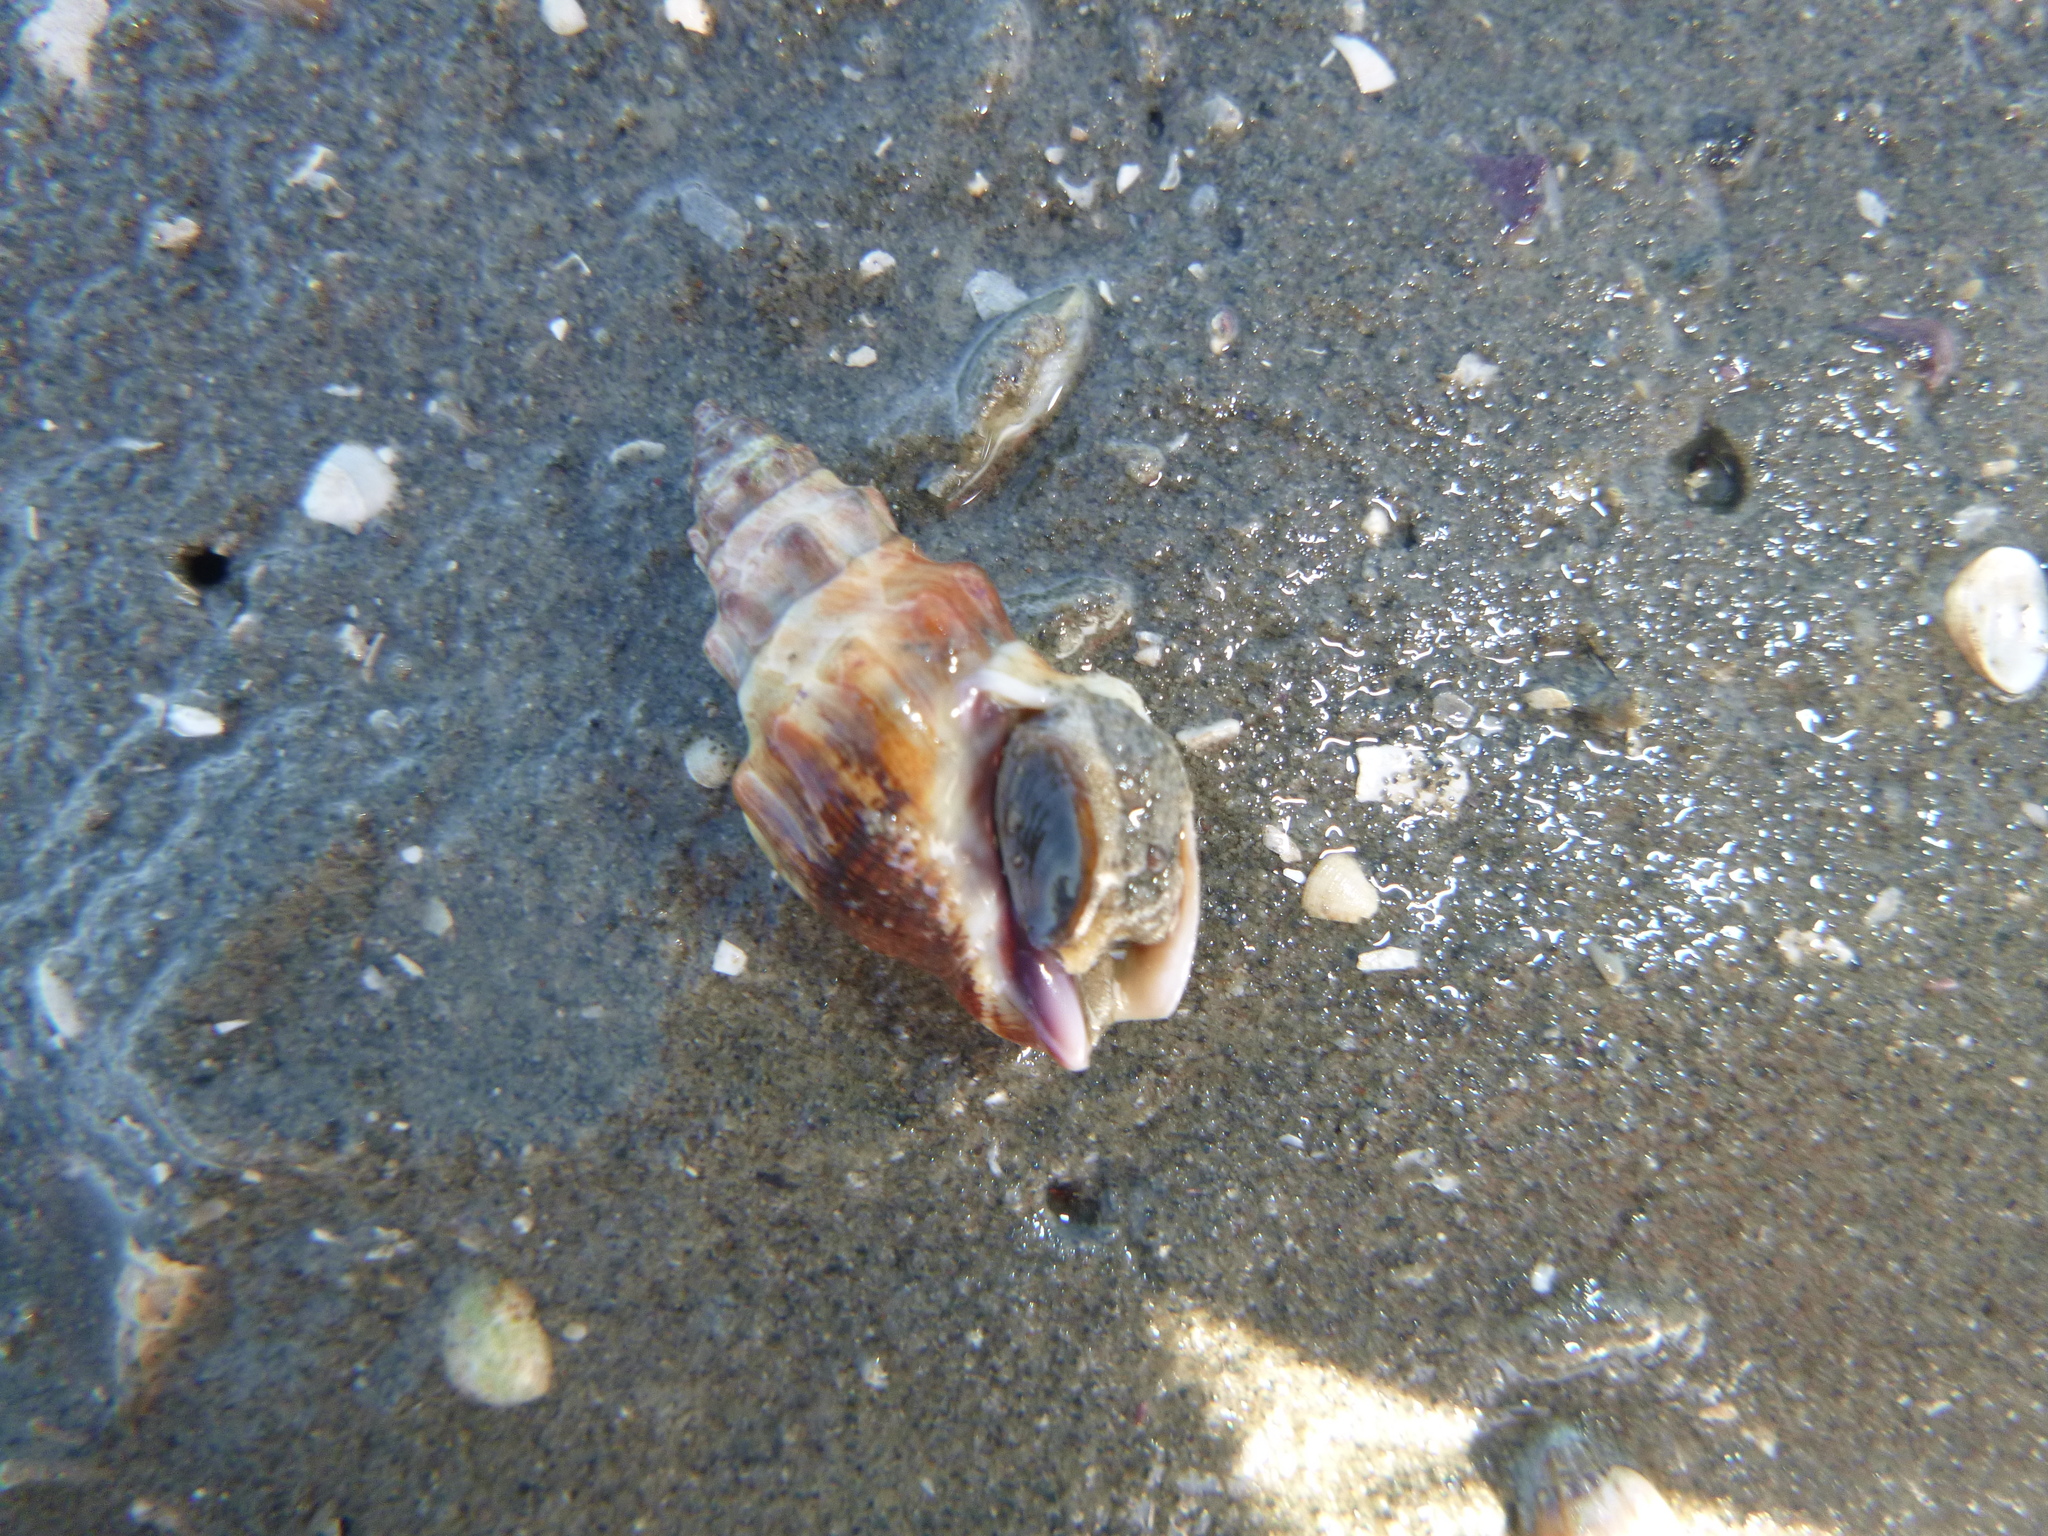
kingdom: Animalia
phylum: Mollusca
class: Gastropoda
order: Neogastropoda
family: Cominellidae
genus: Cominella
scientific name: Cominella glandiformis
